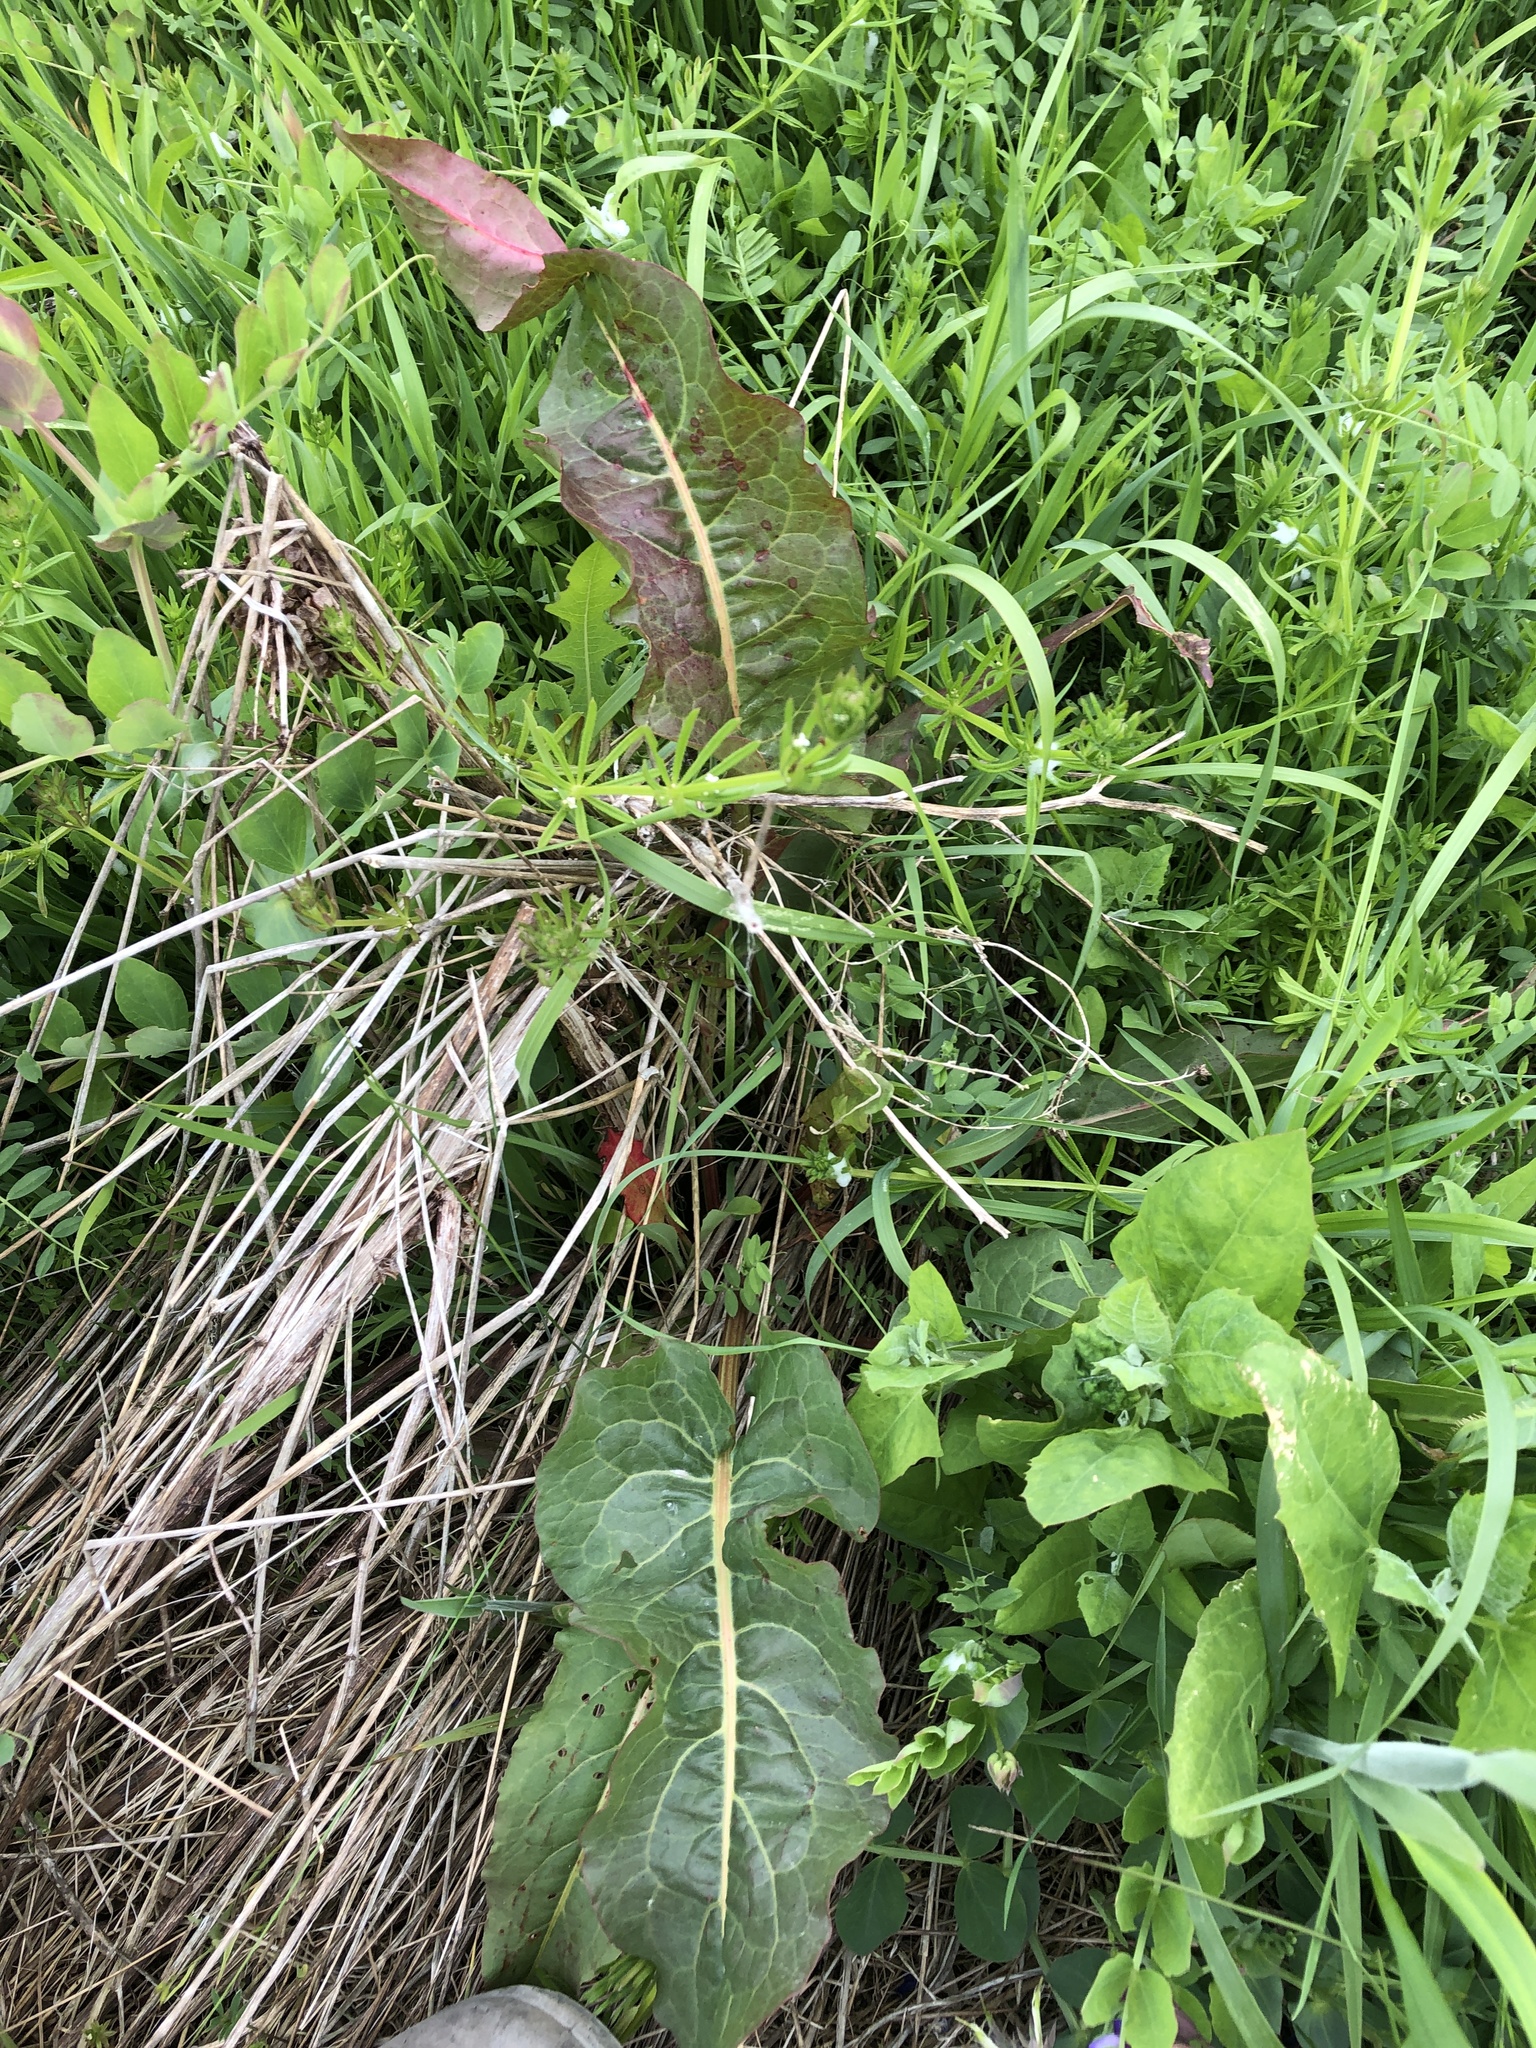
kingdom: Plantae
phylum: Tracheophyta
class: Magnoliopsida
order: Caryophyllales
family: Polygonaceae
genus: Rumex
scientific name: Rumex obtusifolius
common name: Bitter dock
